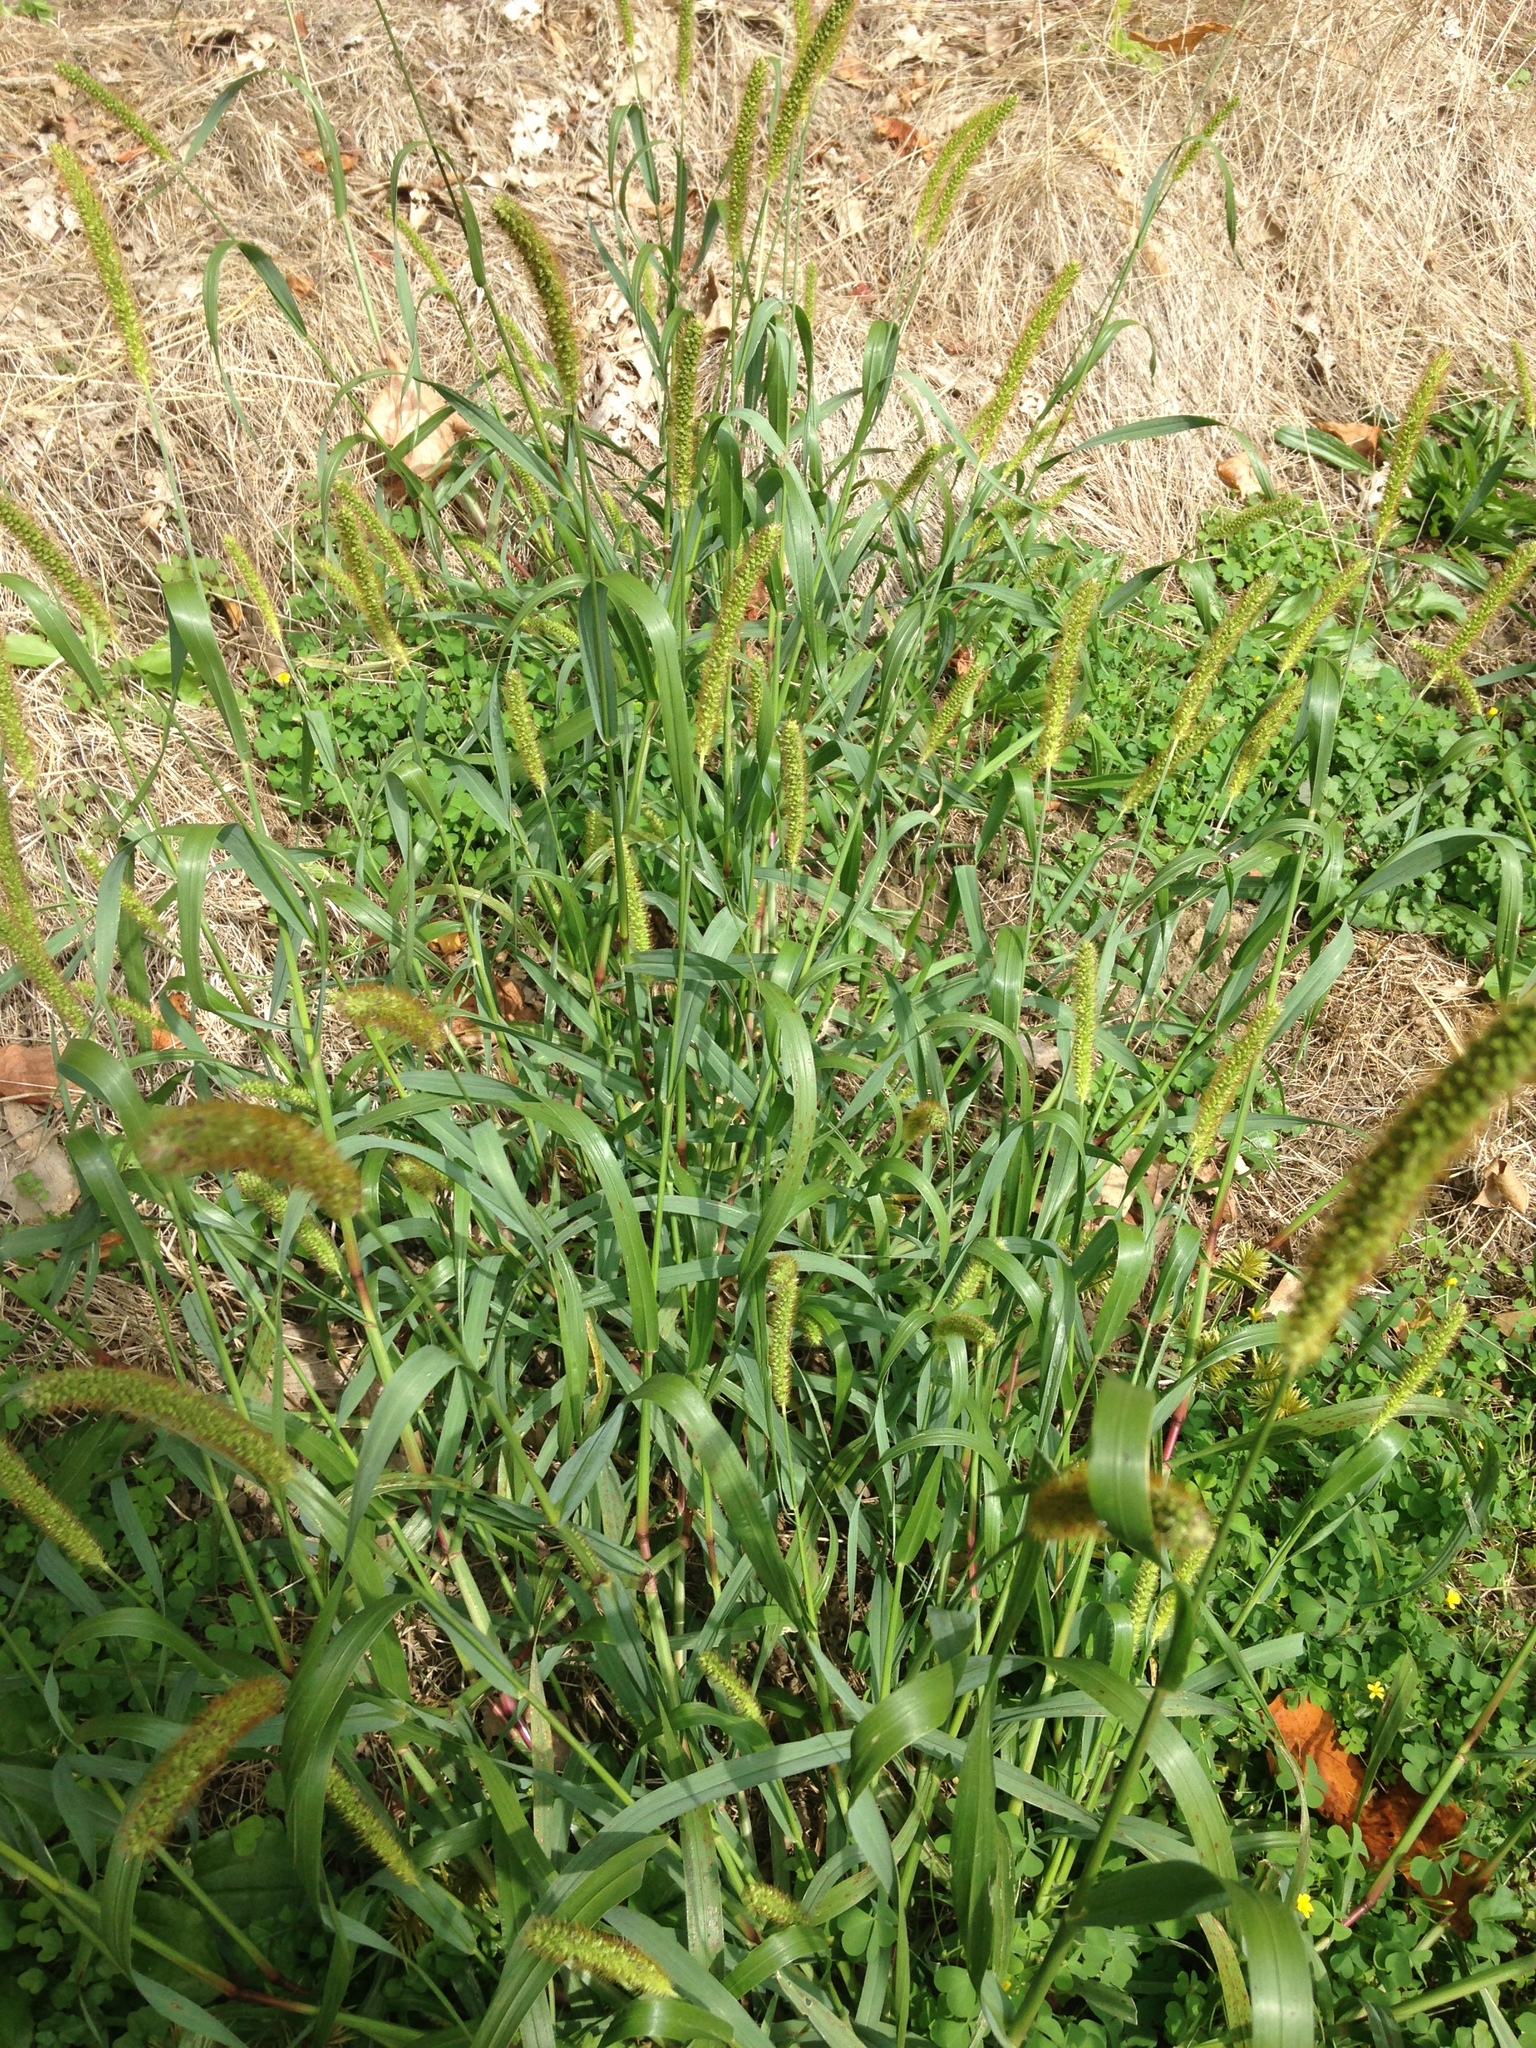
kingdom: Plantae
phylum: Tracheophyta
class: Liliopsida
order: Poales
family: Poaceae
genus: Setaria
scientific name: Setaria pumila
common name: Yellow bristle-grass
